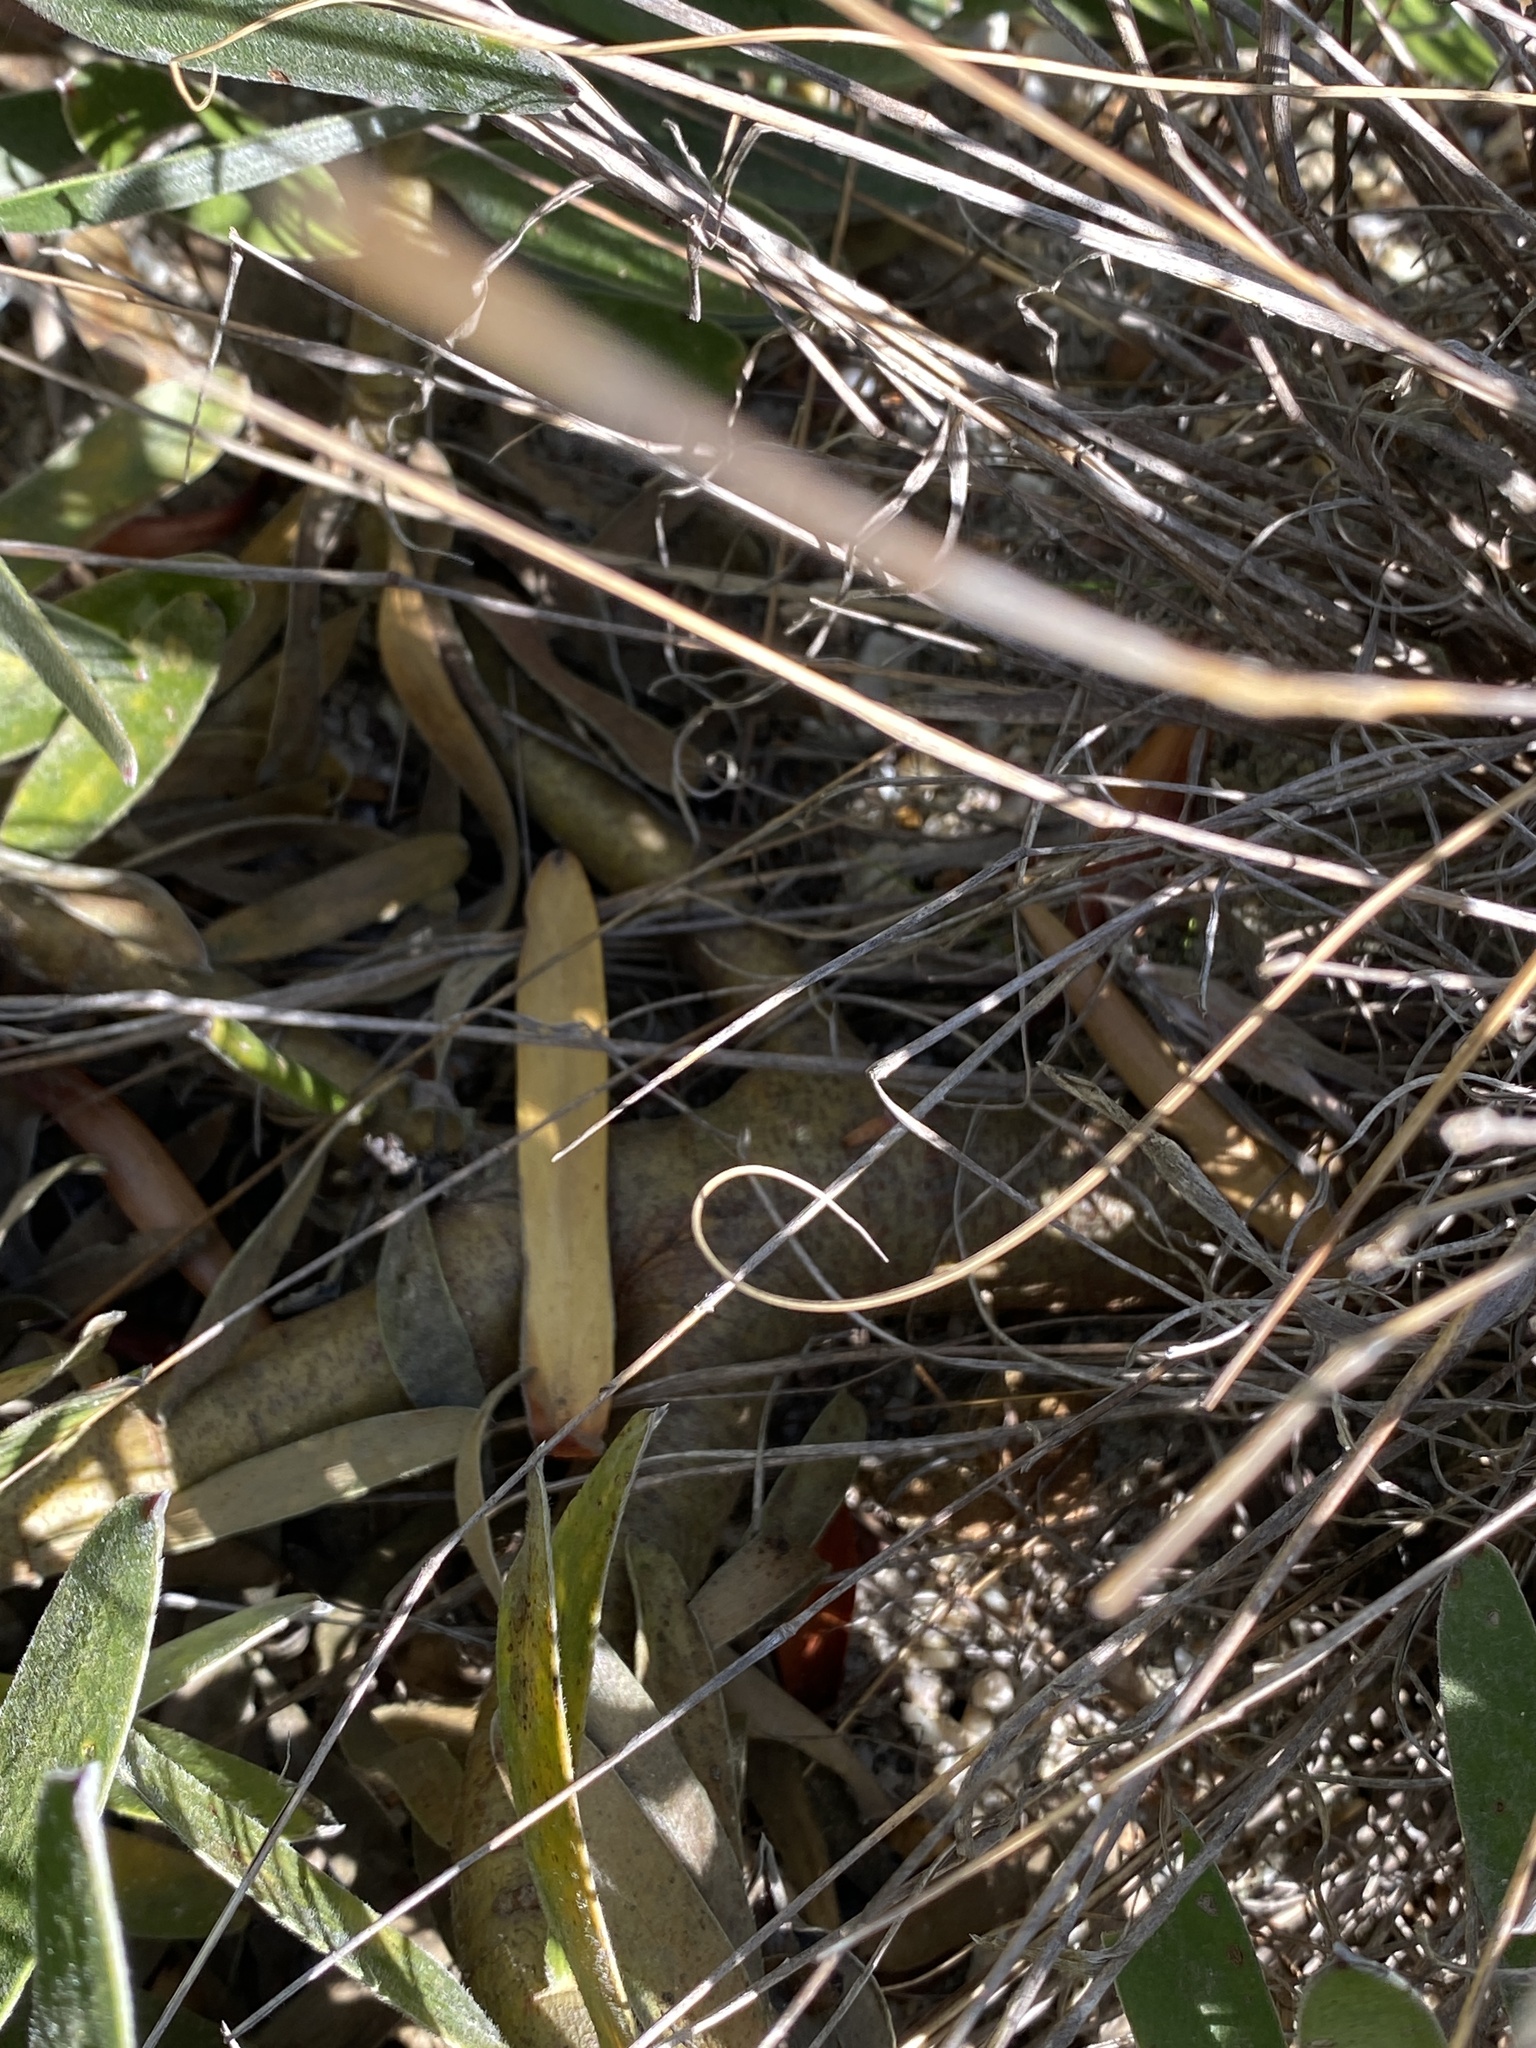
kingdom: Plantae
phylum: Tracheophyta
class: Magnoliopsida
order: Proteales
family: Proteaceae
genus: Leucadendron
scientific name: Leucadendron laureolum
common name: Golden sunshinebush
